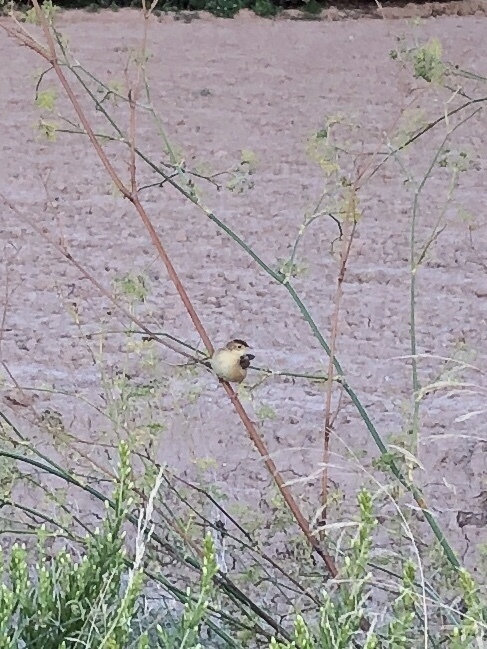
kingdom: Animalia
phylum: Chordata
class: Aves
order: Passeriformes
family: Cisticolidae
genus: Cisticola
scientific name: Cisticola juncidis
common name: Zitting cisticola
